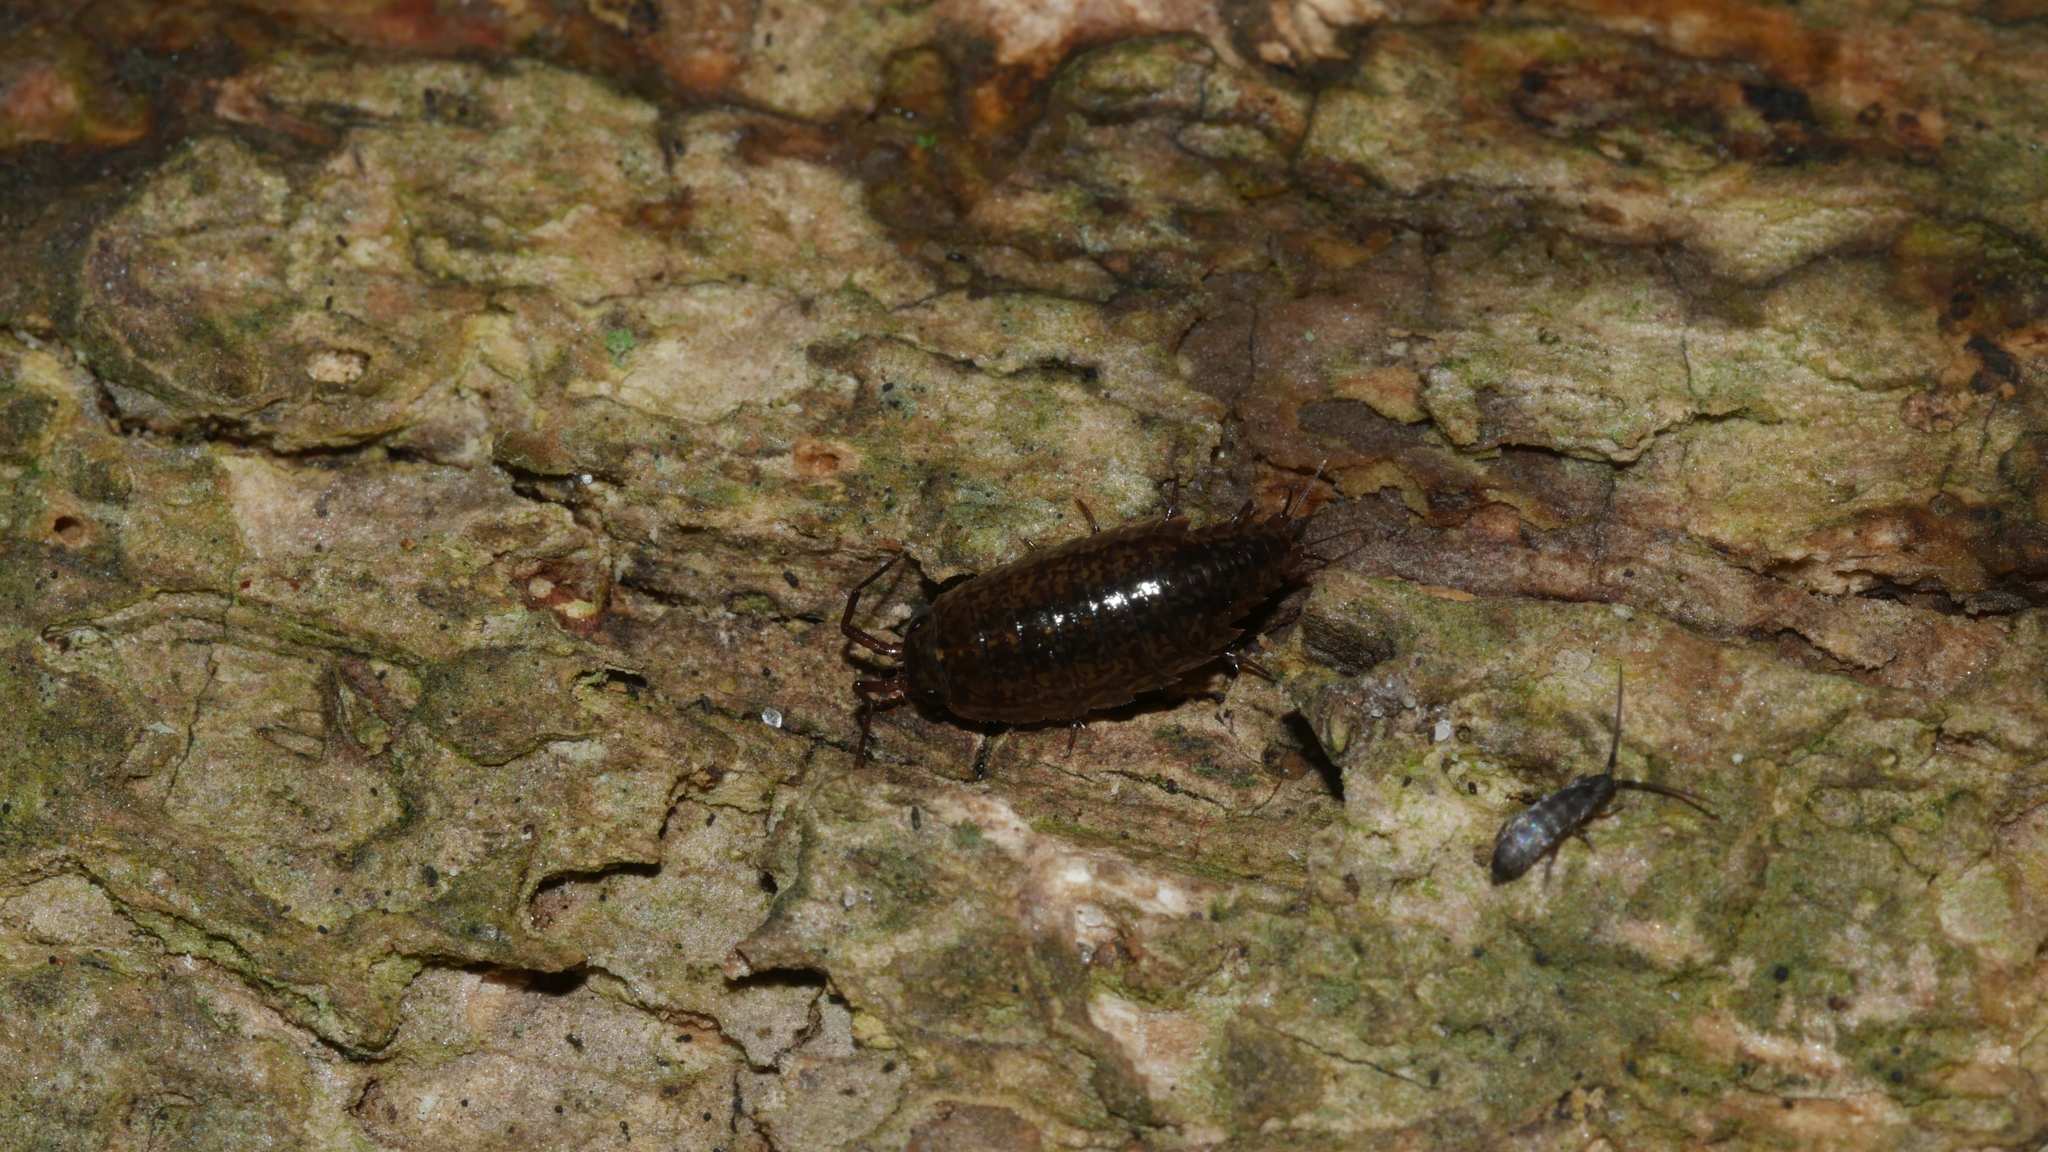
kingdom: Animalia
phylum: Arthropoda
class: Malacostraca
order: Isopoda
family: Ligiidae
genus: Ligidium
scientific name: Ligidium elrodii
